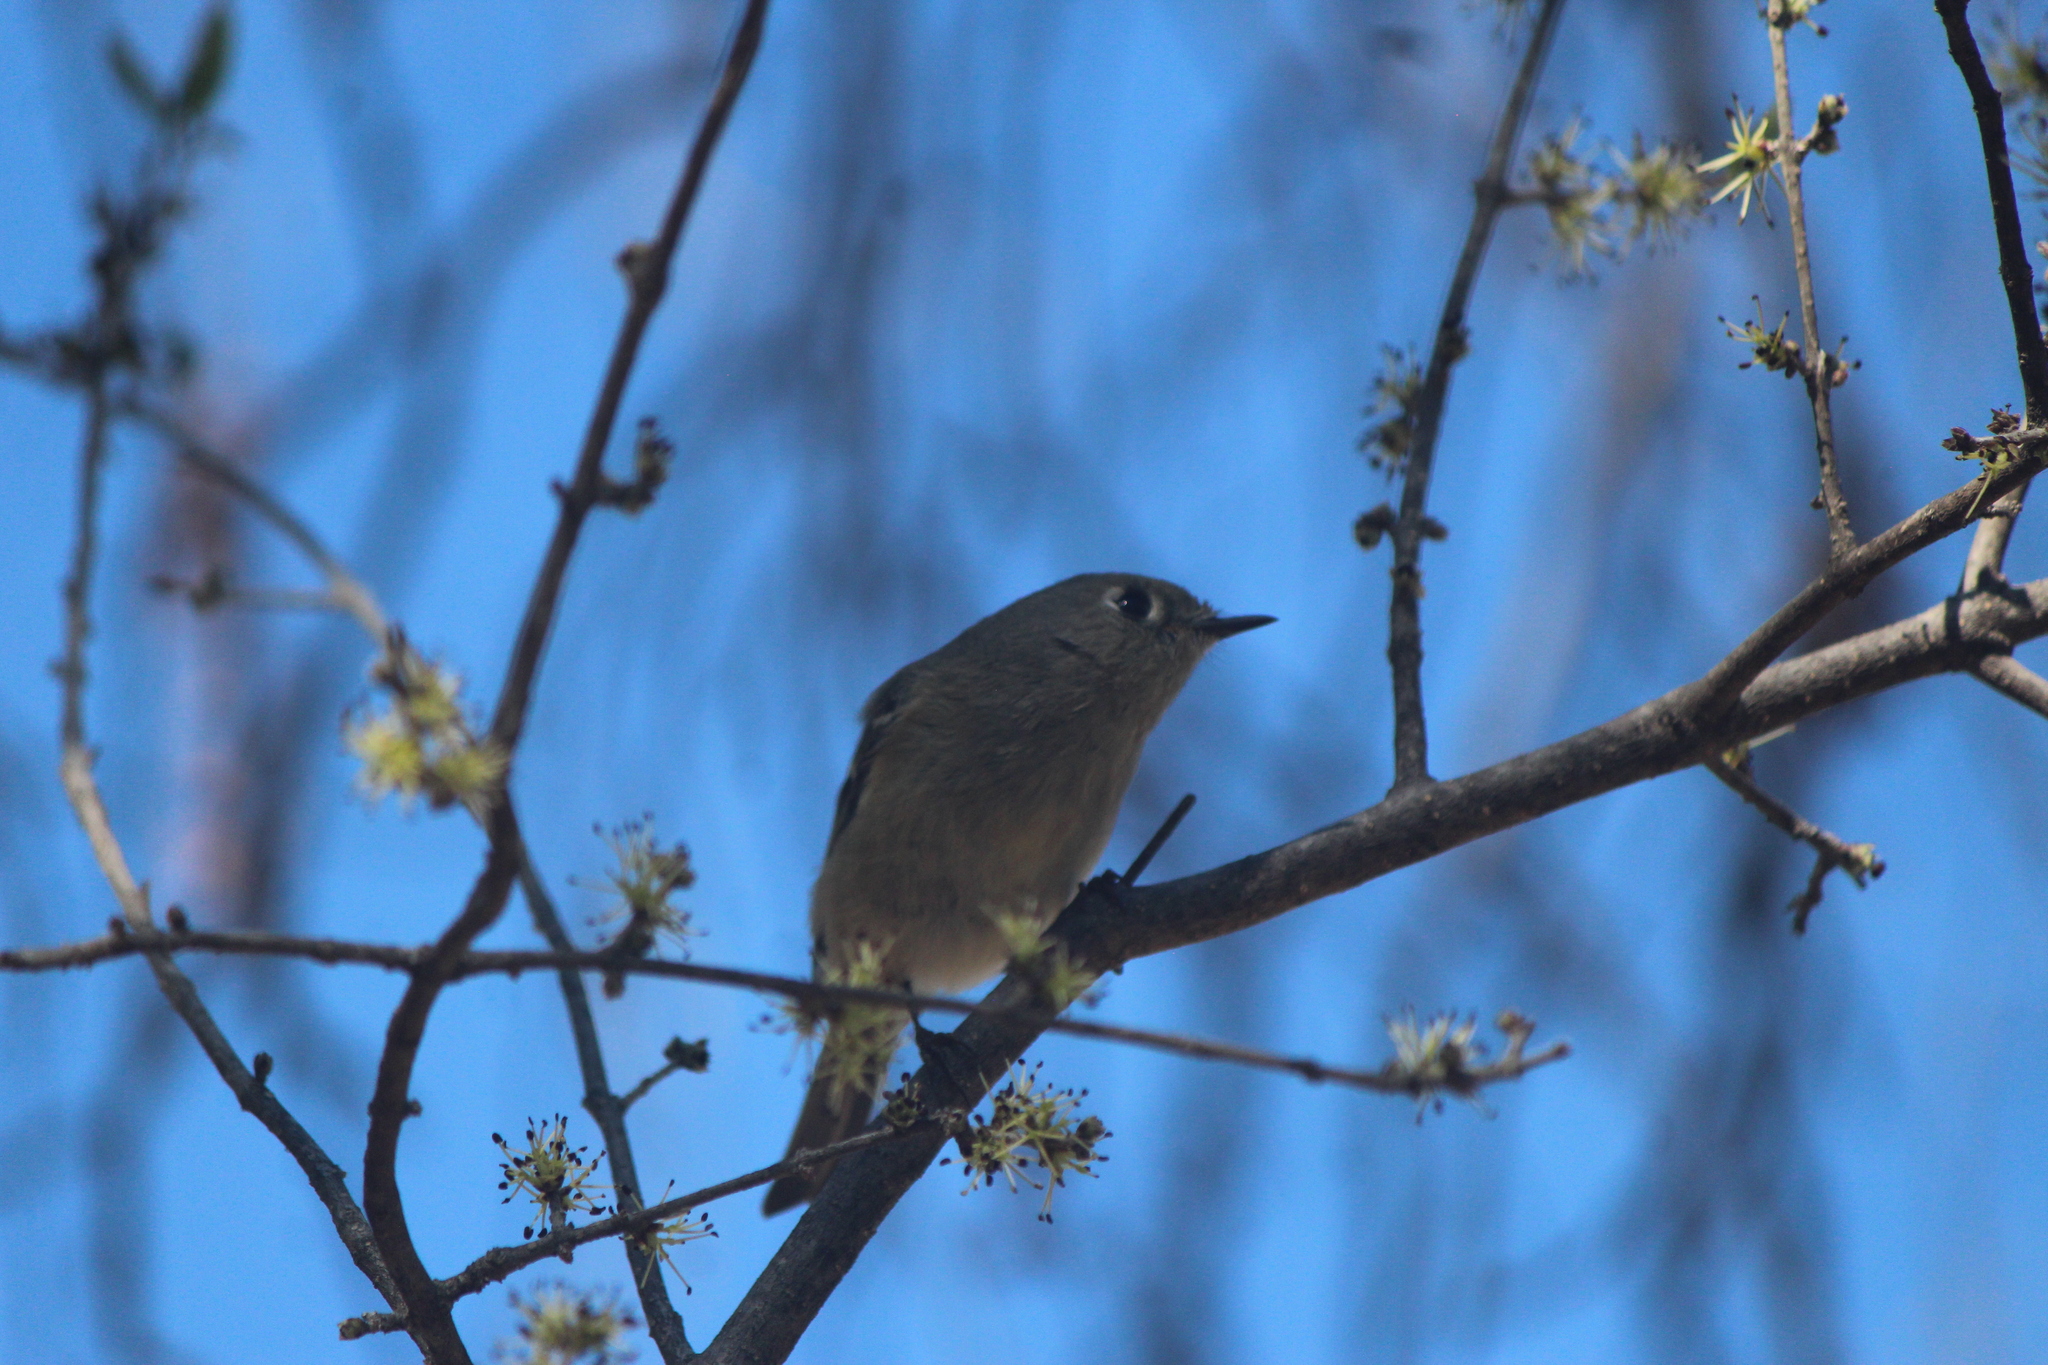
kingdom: Animalia
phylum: Chordata
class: Aves
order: Passeriformes
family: Regulidae
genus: Regulus
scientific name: Regulus calendula
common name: Ruby-crowned kinglet
